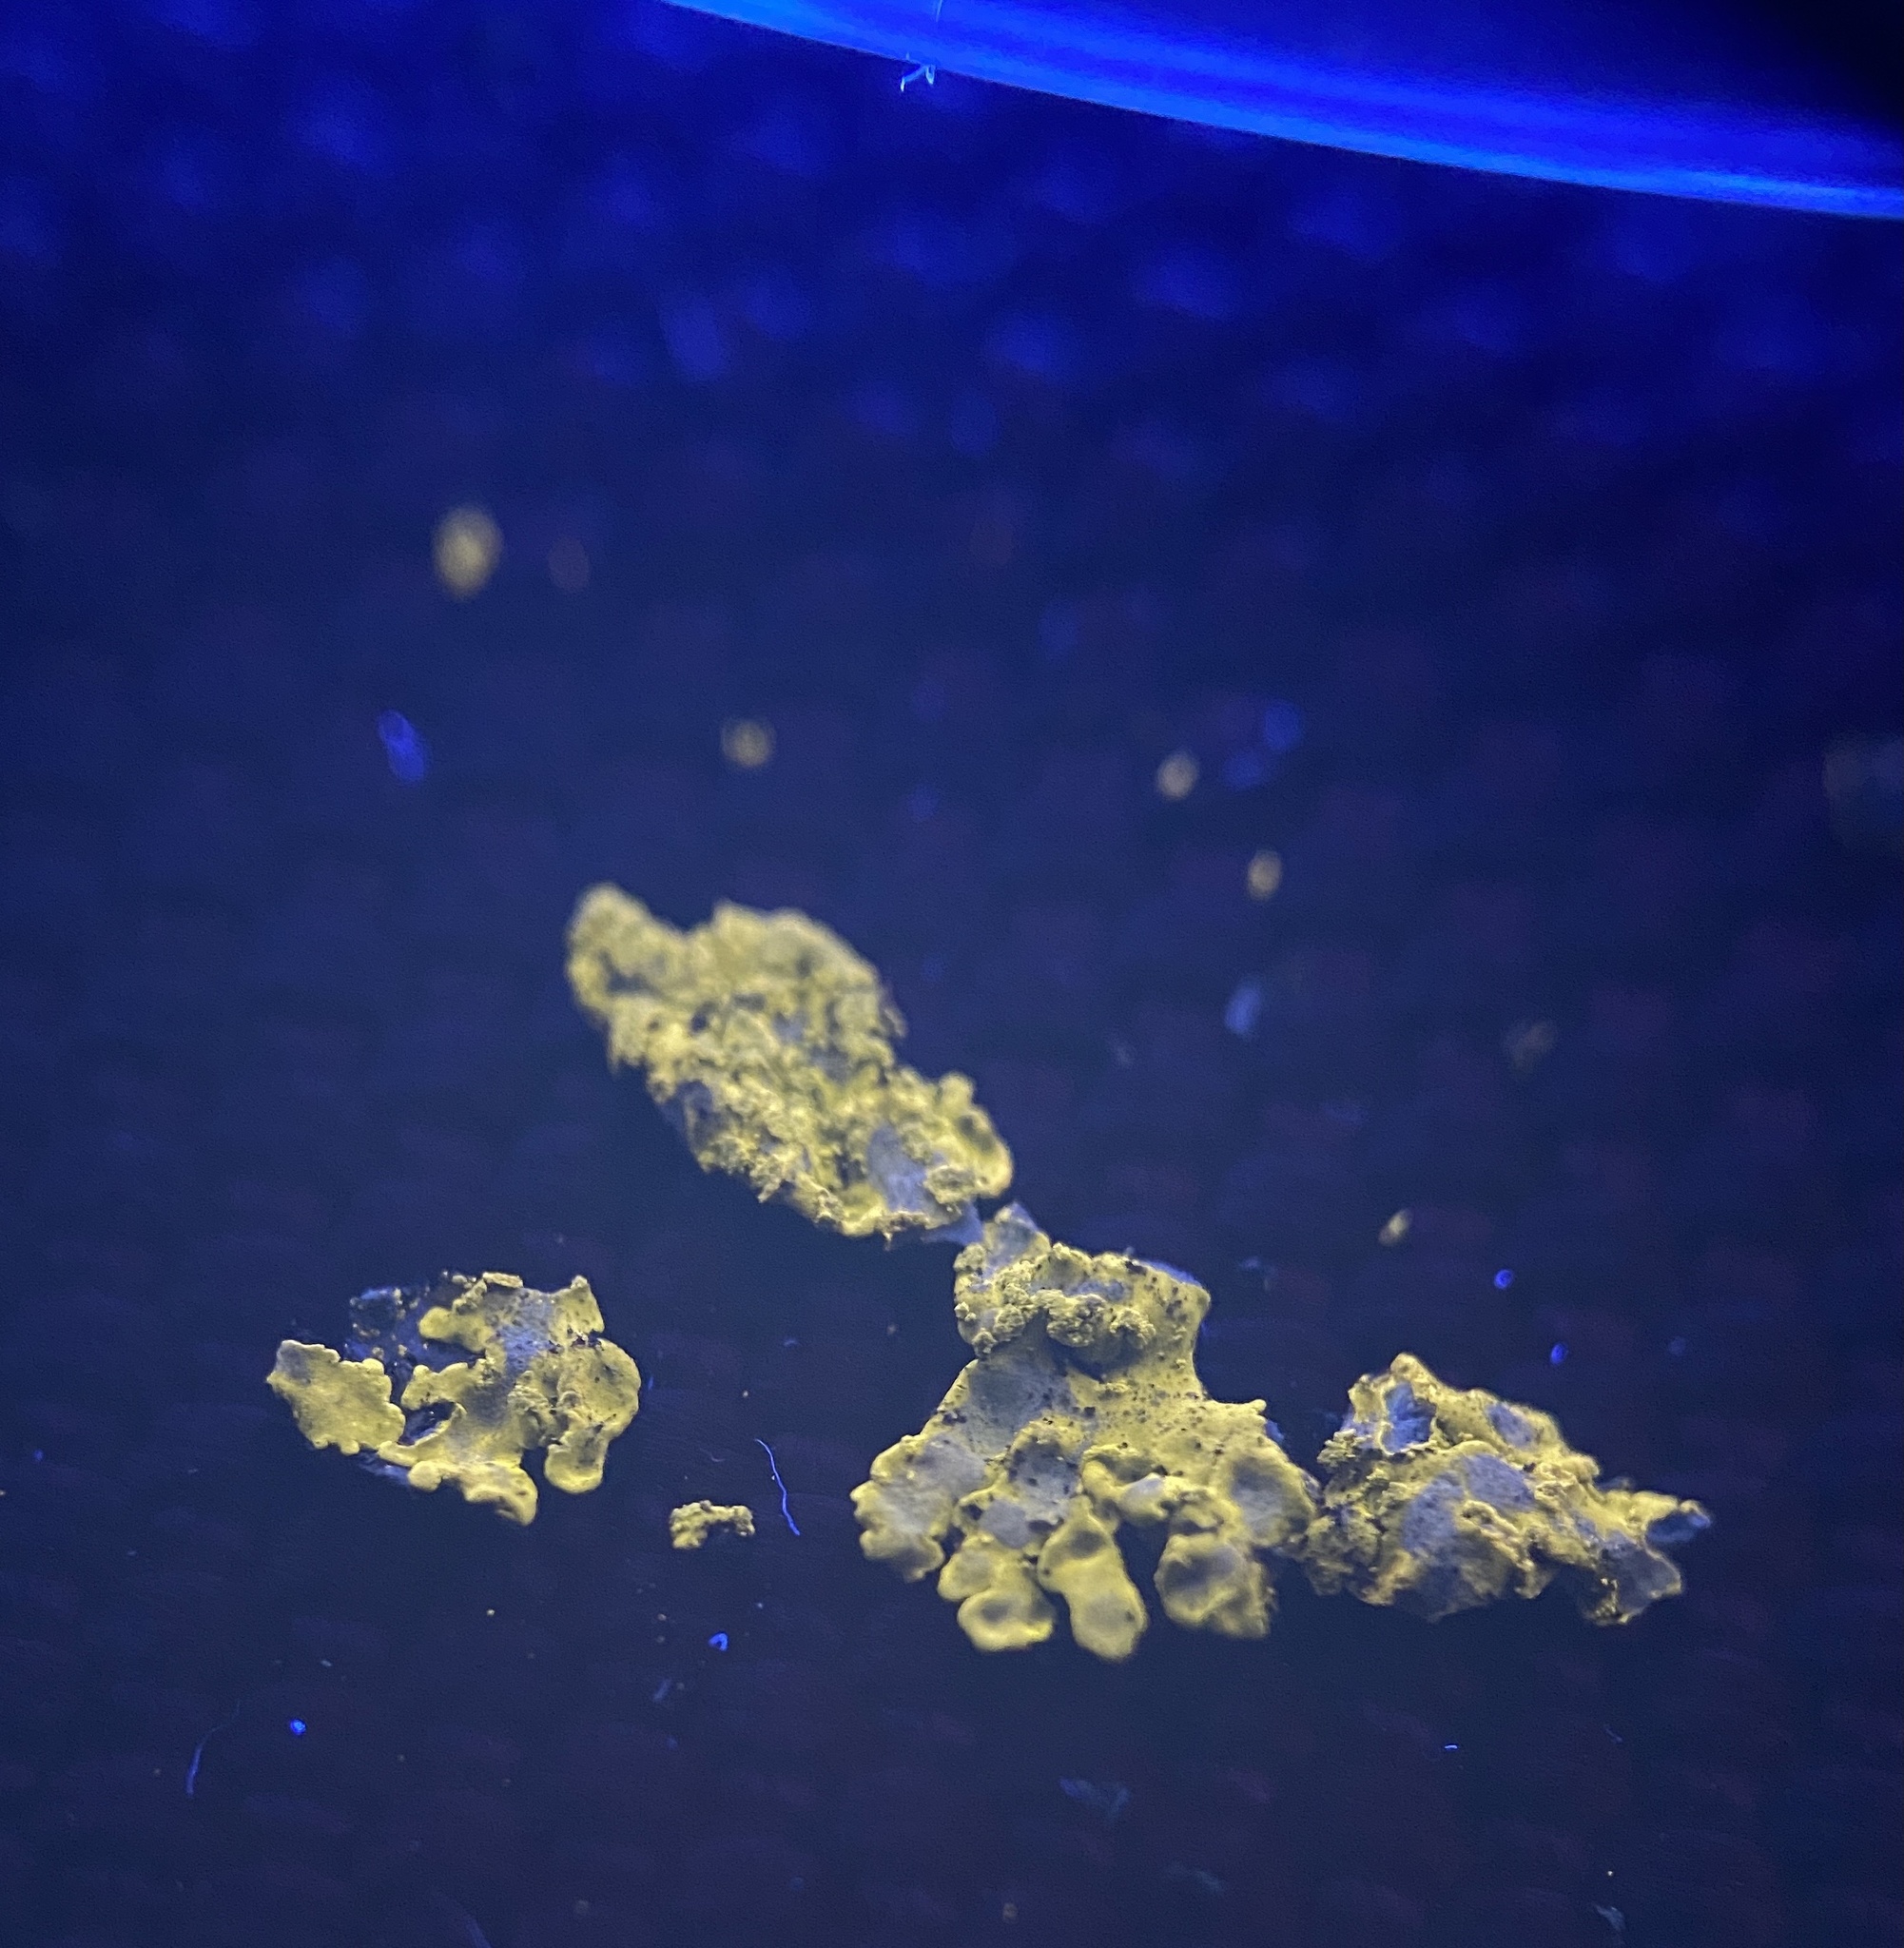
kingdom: Fungi
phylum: Ascomycota
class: Lecanoromycetes
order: Caliciales
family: Caliciaceae
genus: Pyxine
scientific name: Pyxine subcinerea
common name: Mustard lichen
